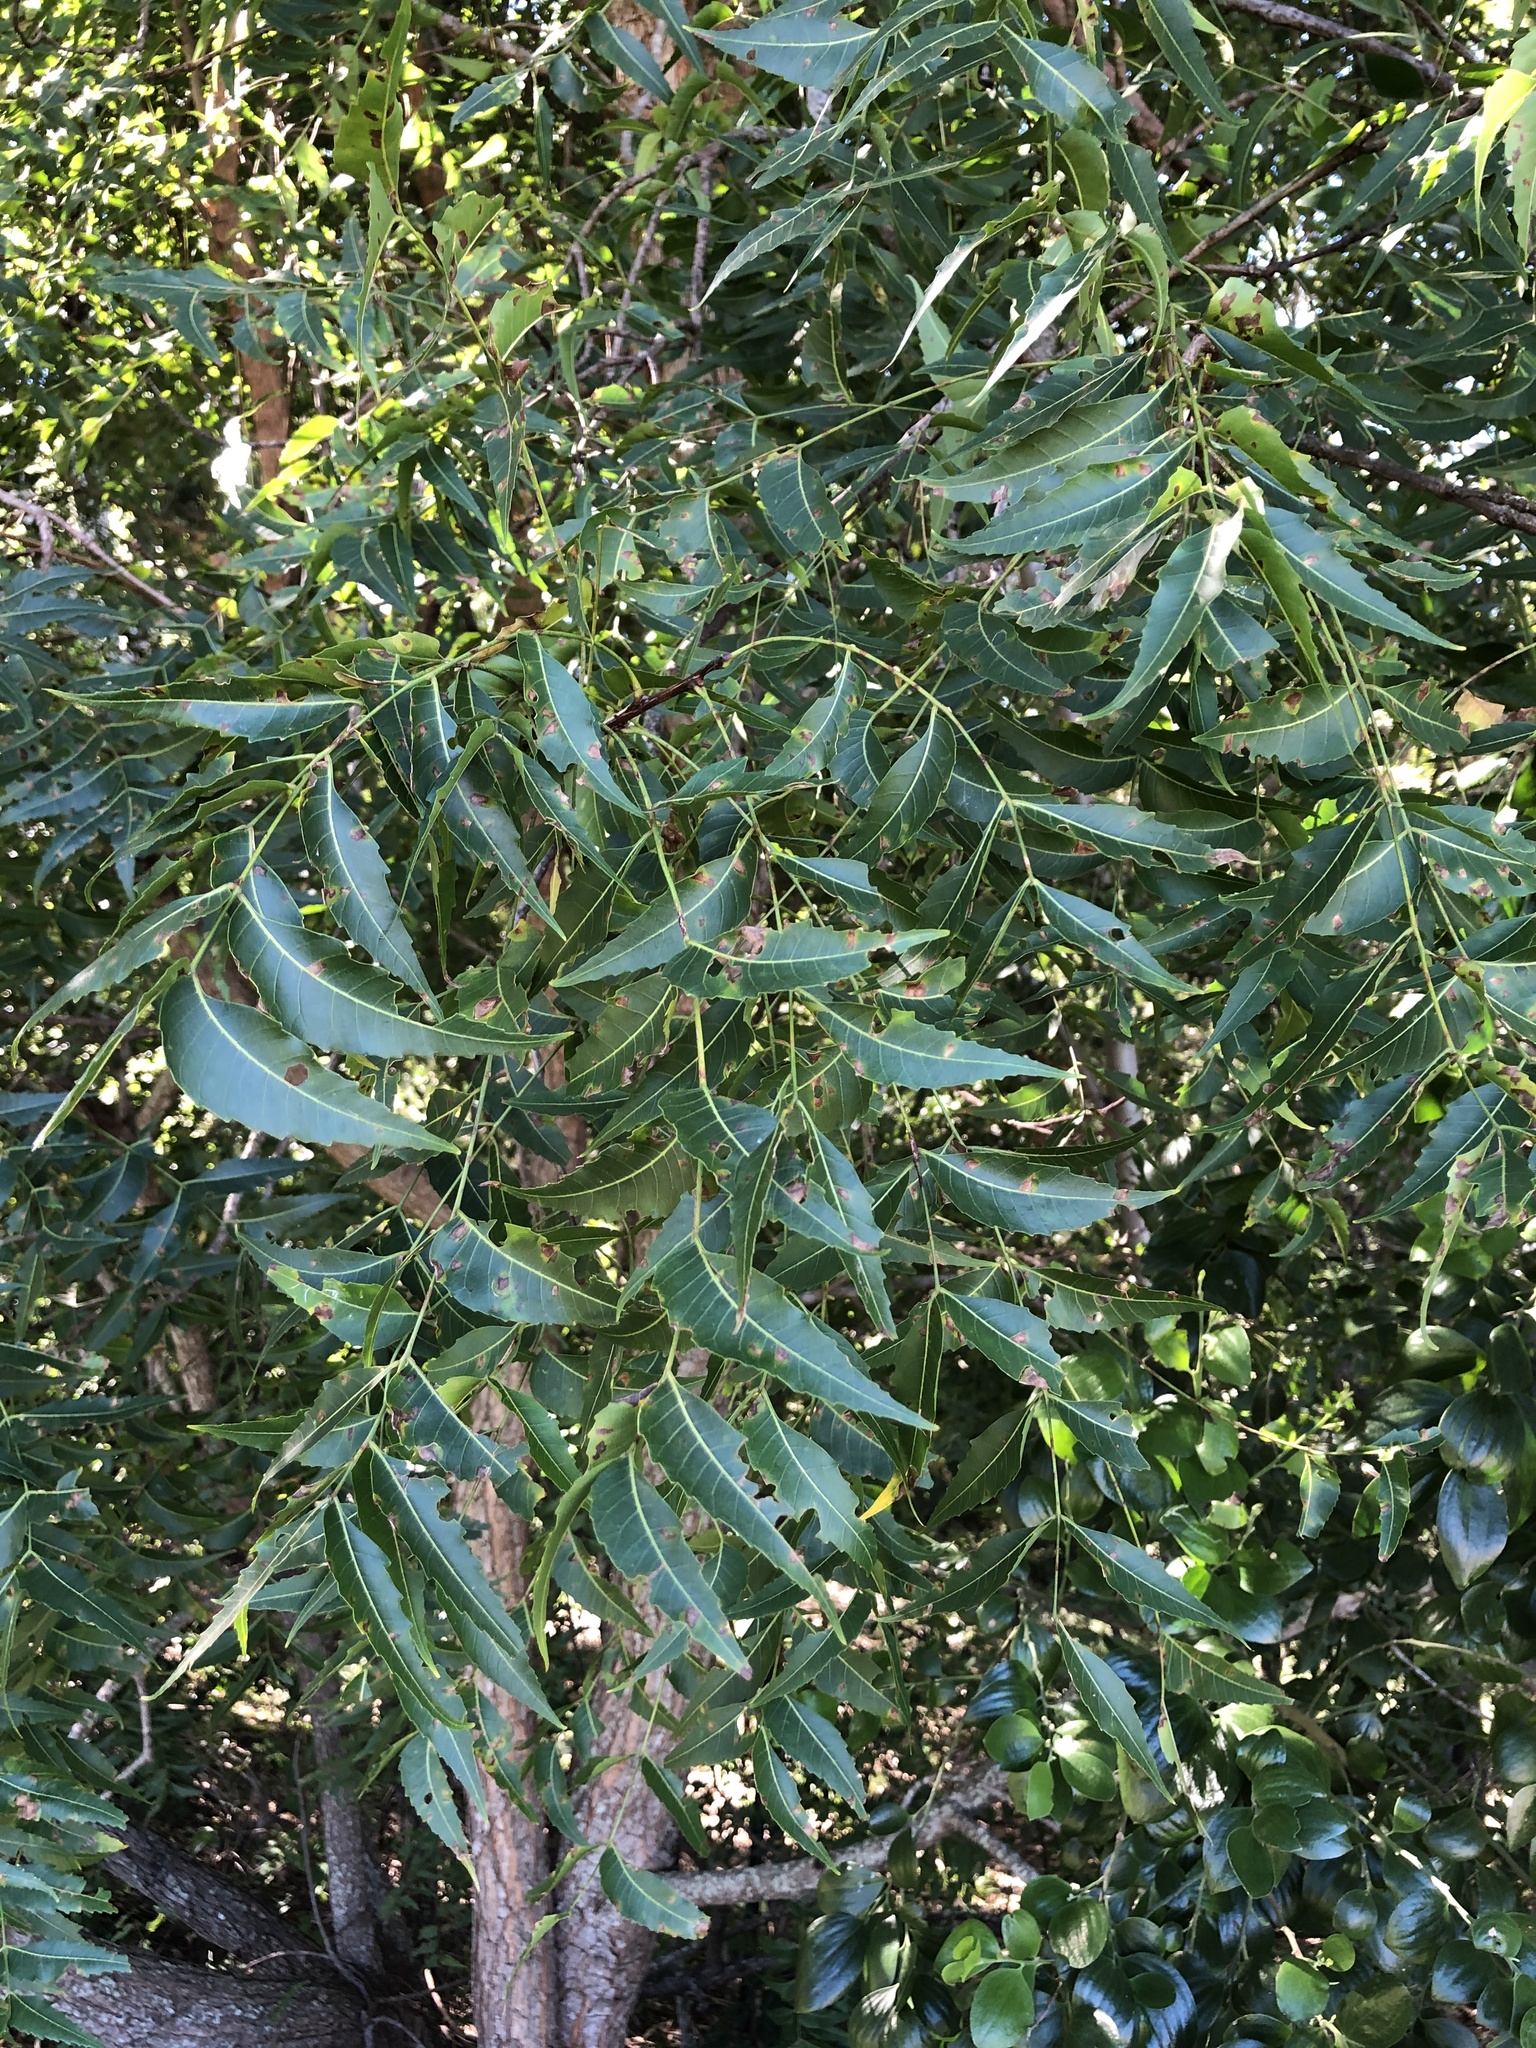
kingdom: Plantae
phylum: Tracheophyta
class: Magnoliopsida
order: Sapindales
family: Meliaceae
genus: Azadirachta
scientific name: Azadirachta indica
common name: Neem
